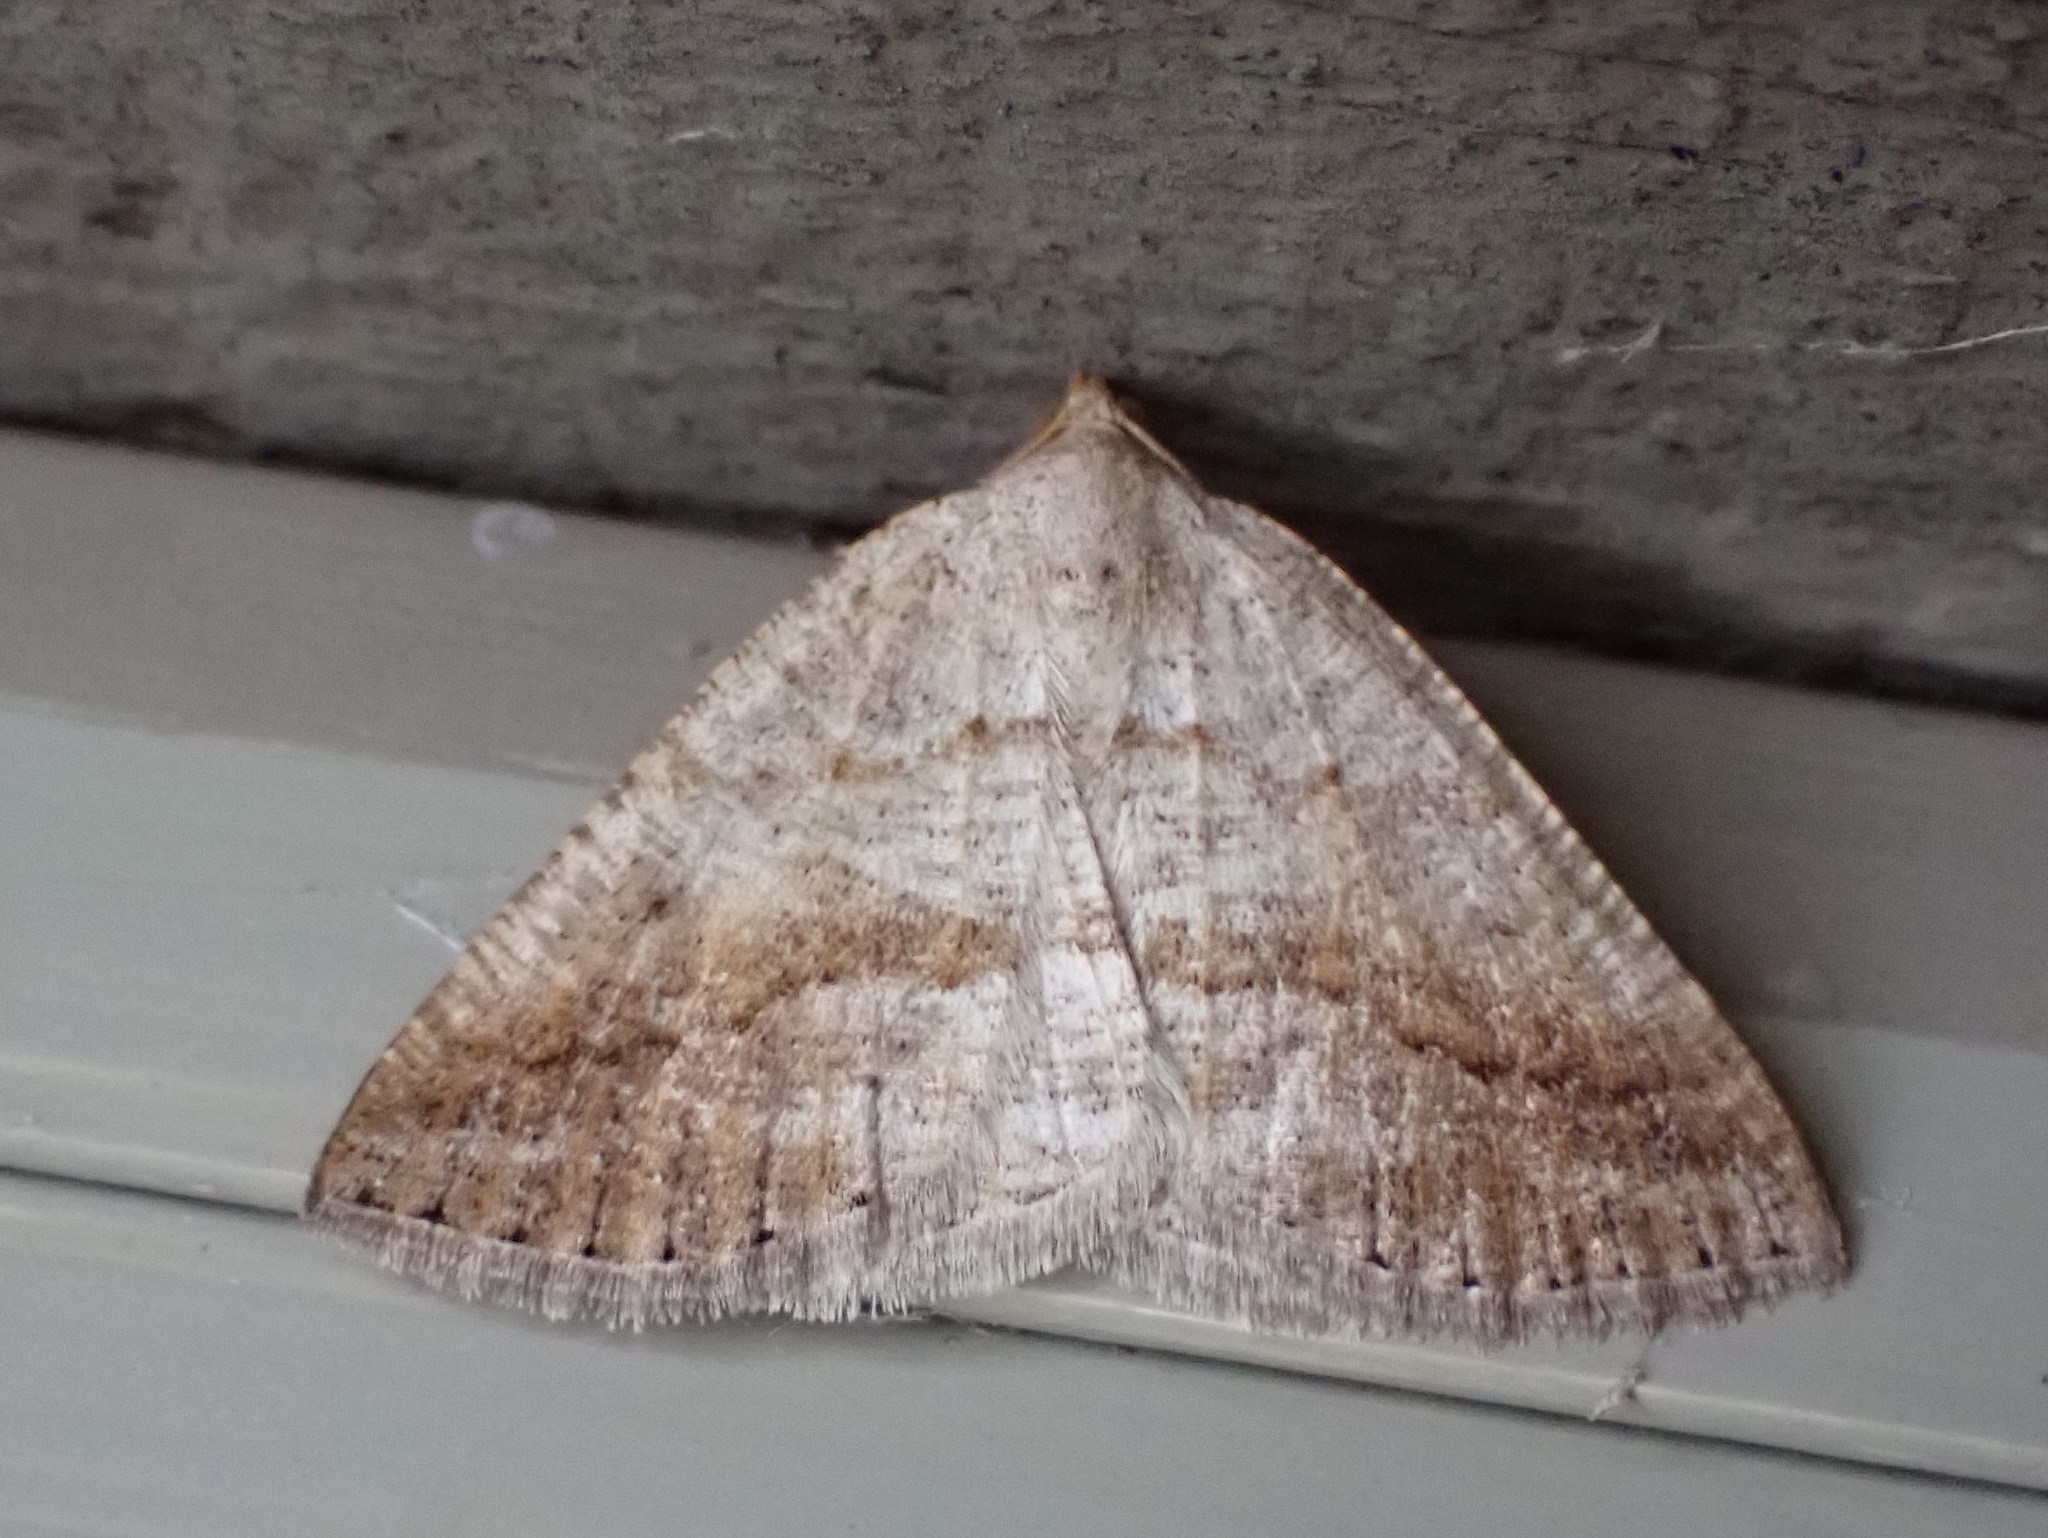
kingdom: Animalia
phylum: Arthropoda
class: Insecta
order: Lepidoptera
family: Geometridae
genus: Tacparia
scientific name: Tacparia detersata
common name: Pale alder moth
